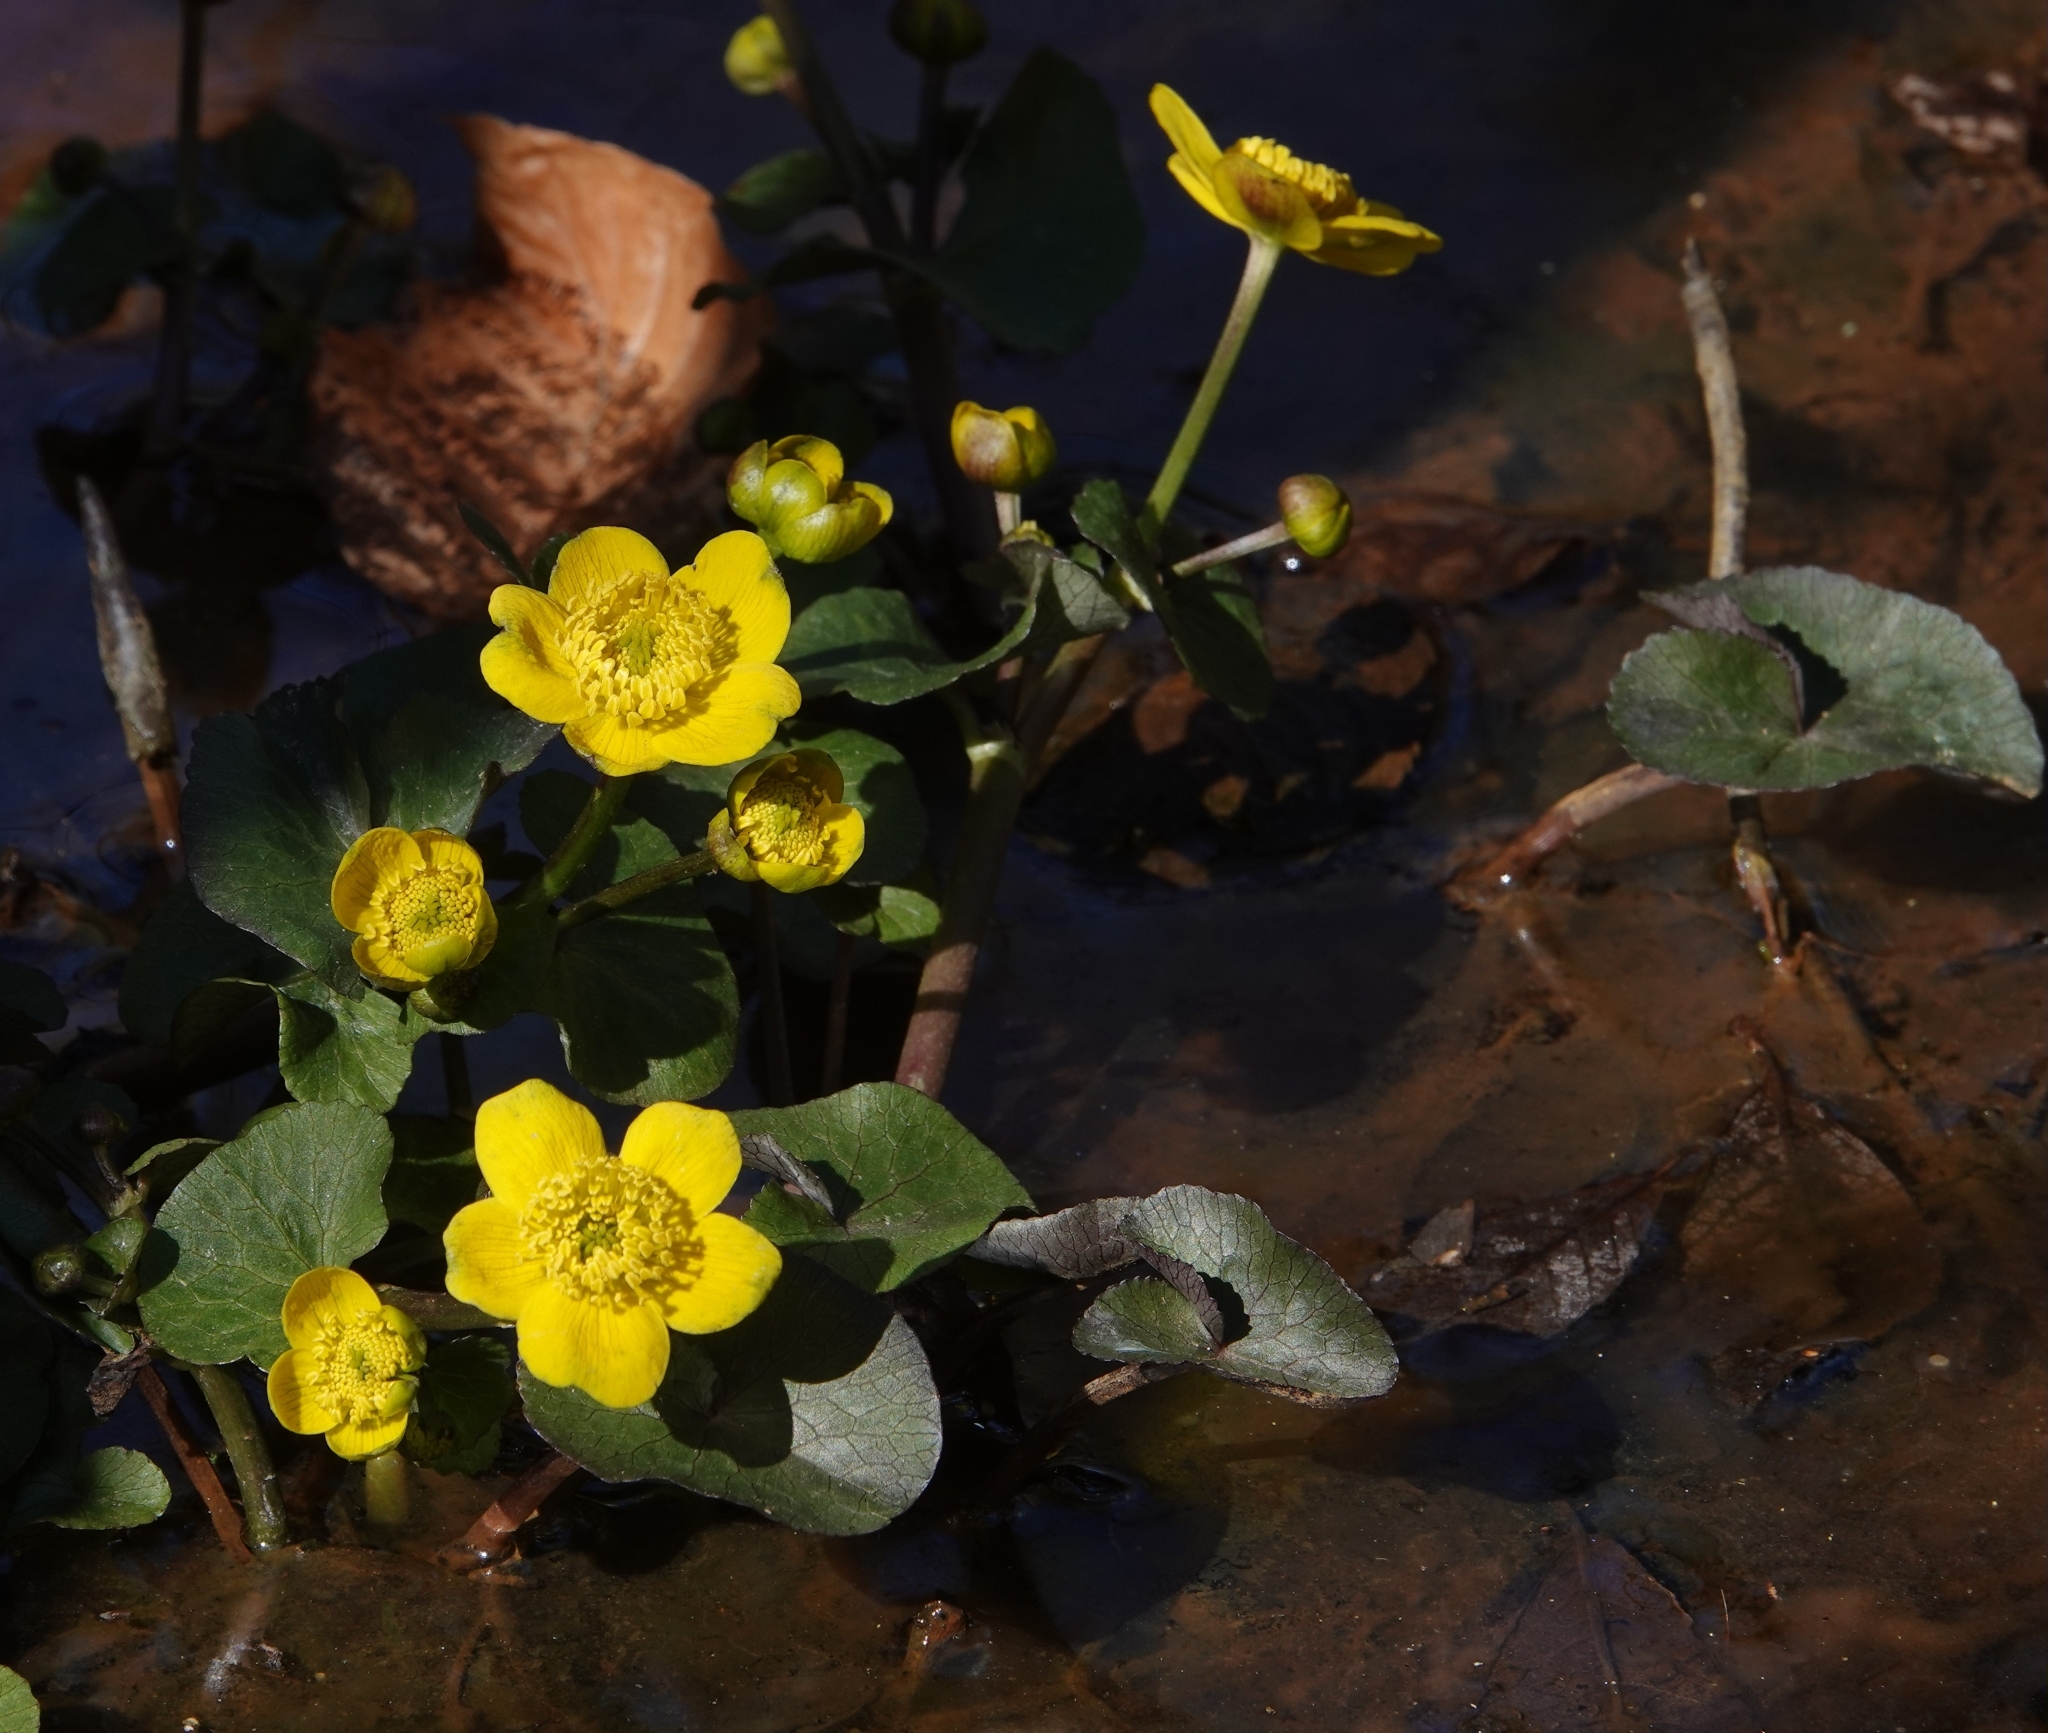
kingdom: Plantae
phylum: Tracheophyta
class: Magnoliopsida
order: Ranunculales
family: Ranunculaceae
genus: Caltha
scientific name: Caltha palustris
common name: Marsh marigold
